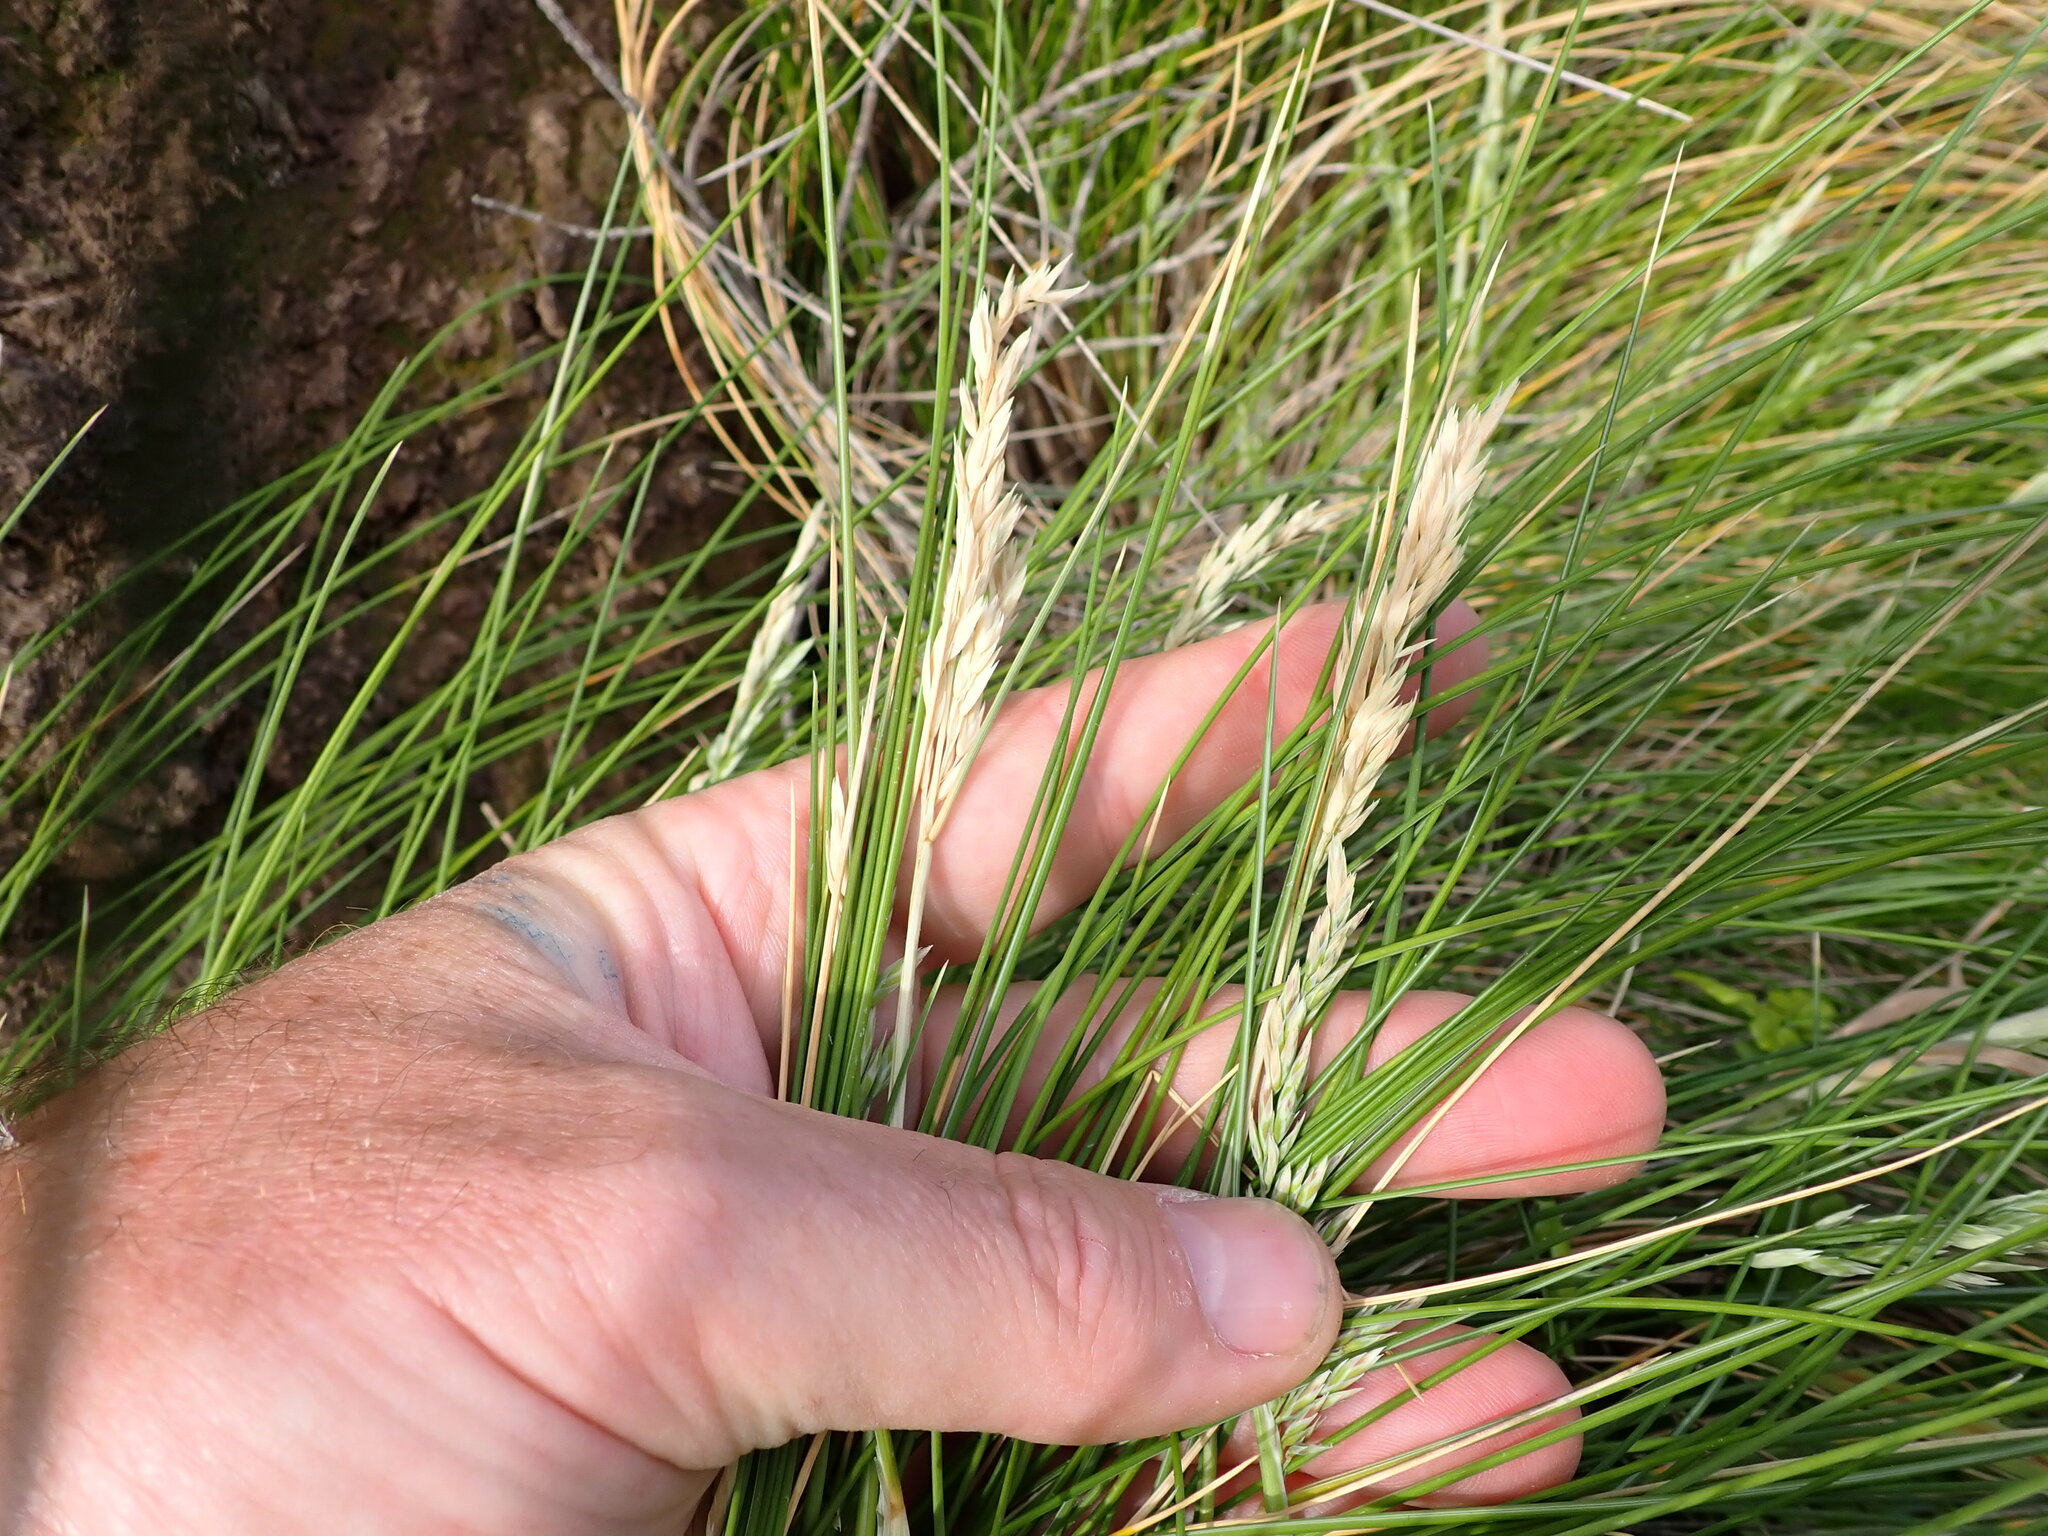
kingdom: Plantae
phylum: Tracheophyta
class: Liliopsida
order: Poales
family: Poaceae
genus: Poa
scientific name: Poa astonii
